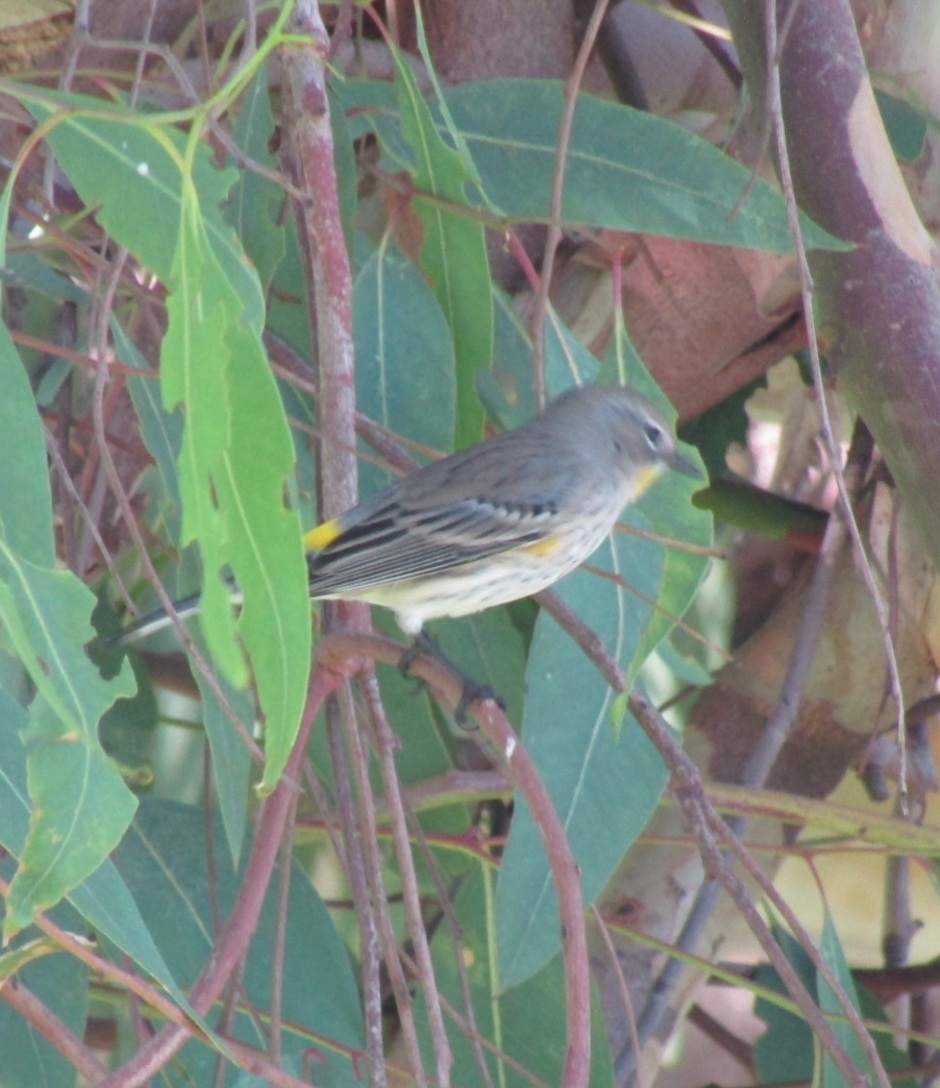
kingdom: Animalia
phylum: Chordata
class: Aves
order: Passeriformes
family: Parulidae
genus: Setophaga
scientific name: Setophaga coronata
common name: Myrtle warbler
